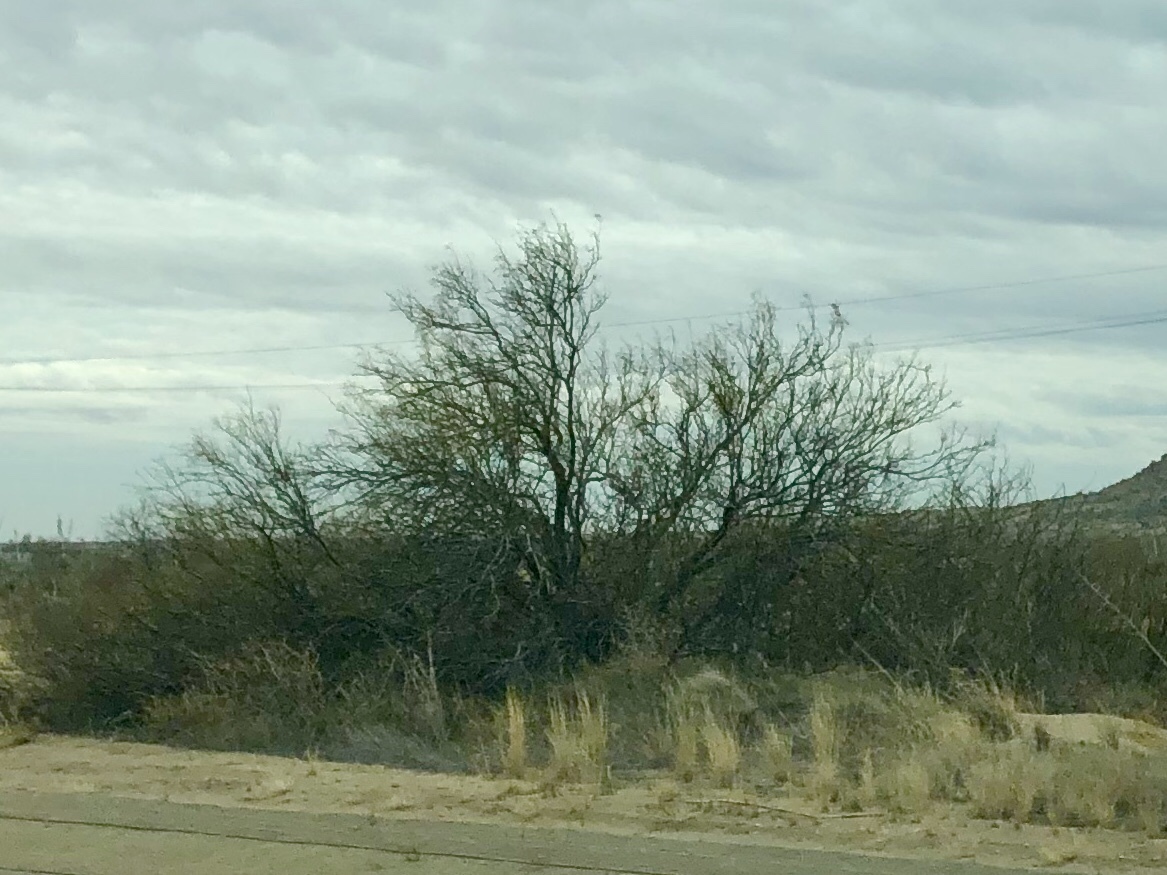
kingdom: Plantae
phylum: Tracheophyta
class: Magnoliopsida
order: Fabales
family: Fabaceae
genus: Prosopis
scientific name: Prosopis glandulosa
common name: Honey mesquite
